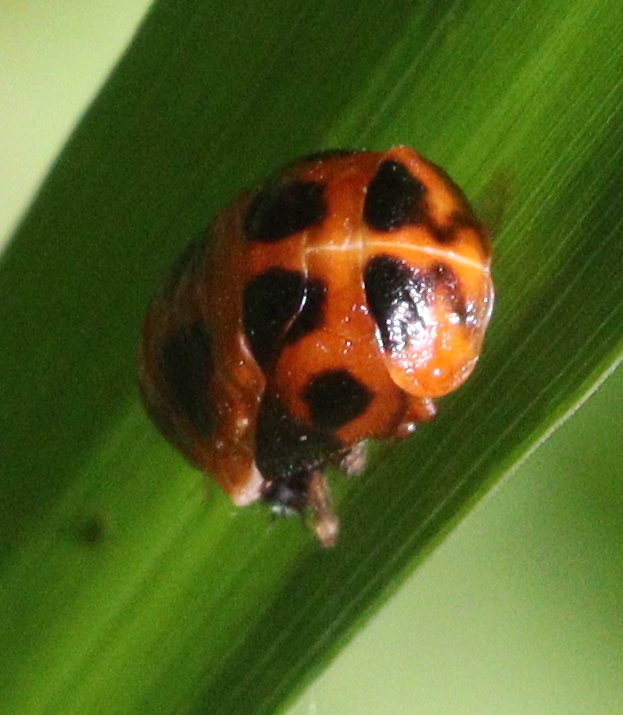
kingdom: Animalia
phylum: Arthropoda
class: Insecta
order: Coleoptera
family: Coccinellidae
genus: Harmonia
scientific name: Harmonia axyridis
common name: Harlequin ladybird
